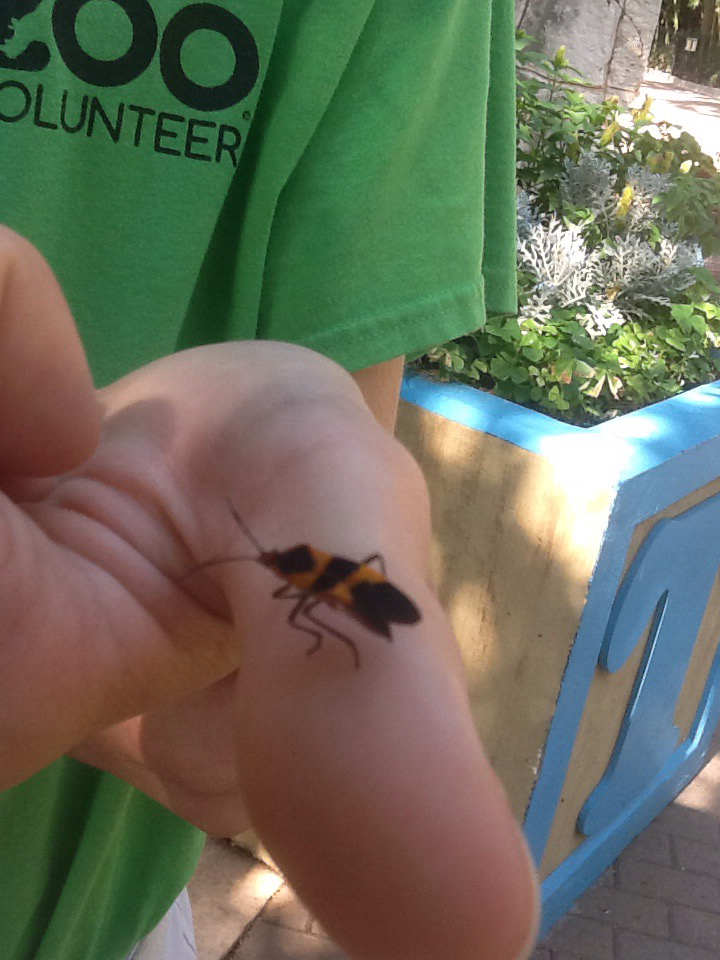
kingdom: Animalia
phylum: Arthropoda
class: Insecta
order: Hemiptera
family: Lygaeidae
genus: Oncopeltus
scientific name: Oncopeltus fasciatus
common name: Large milkweed bug
